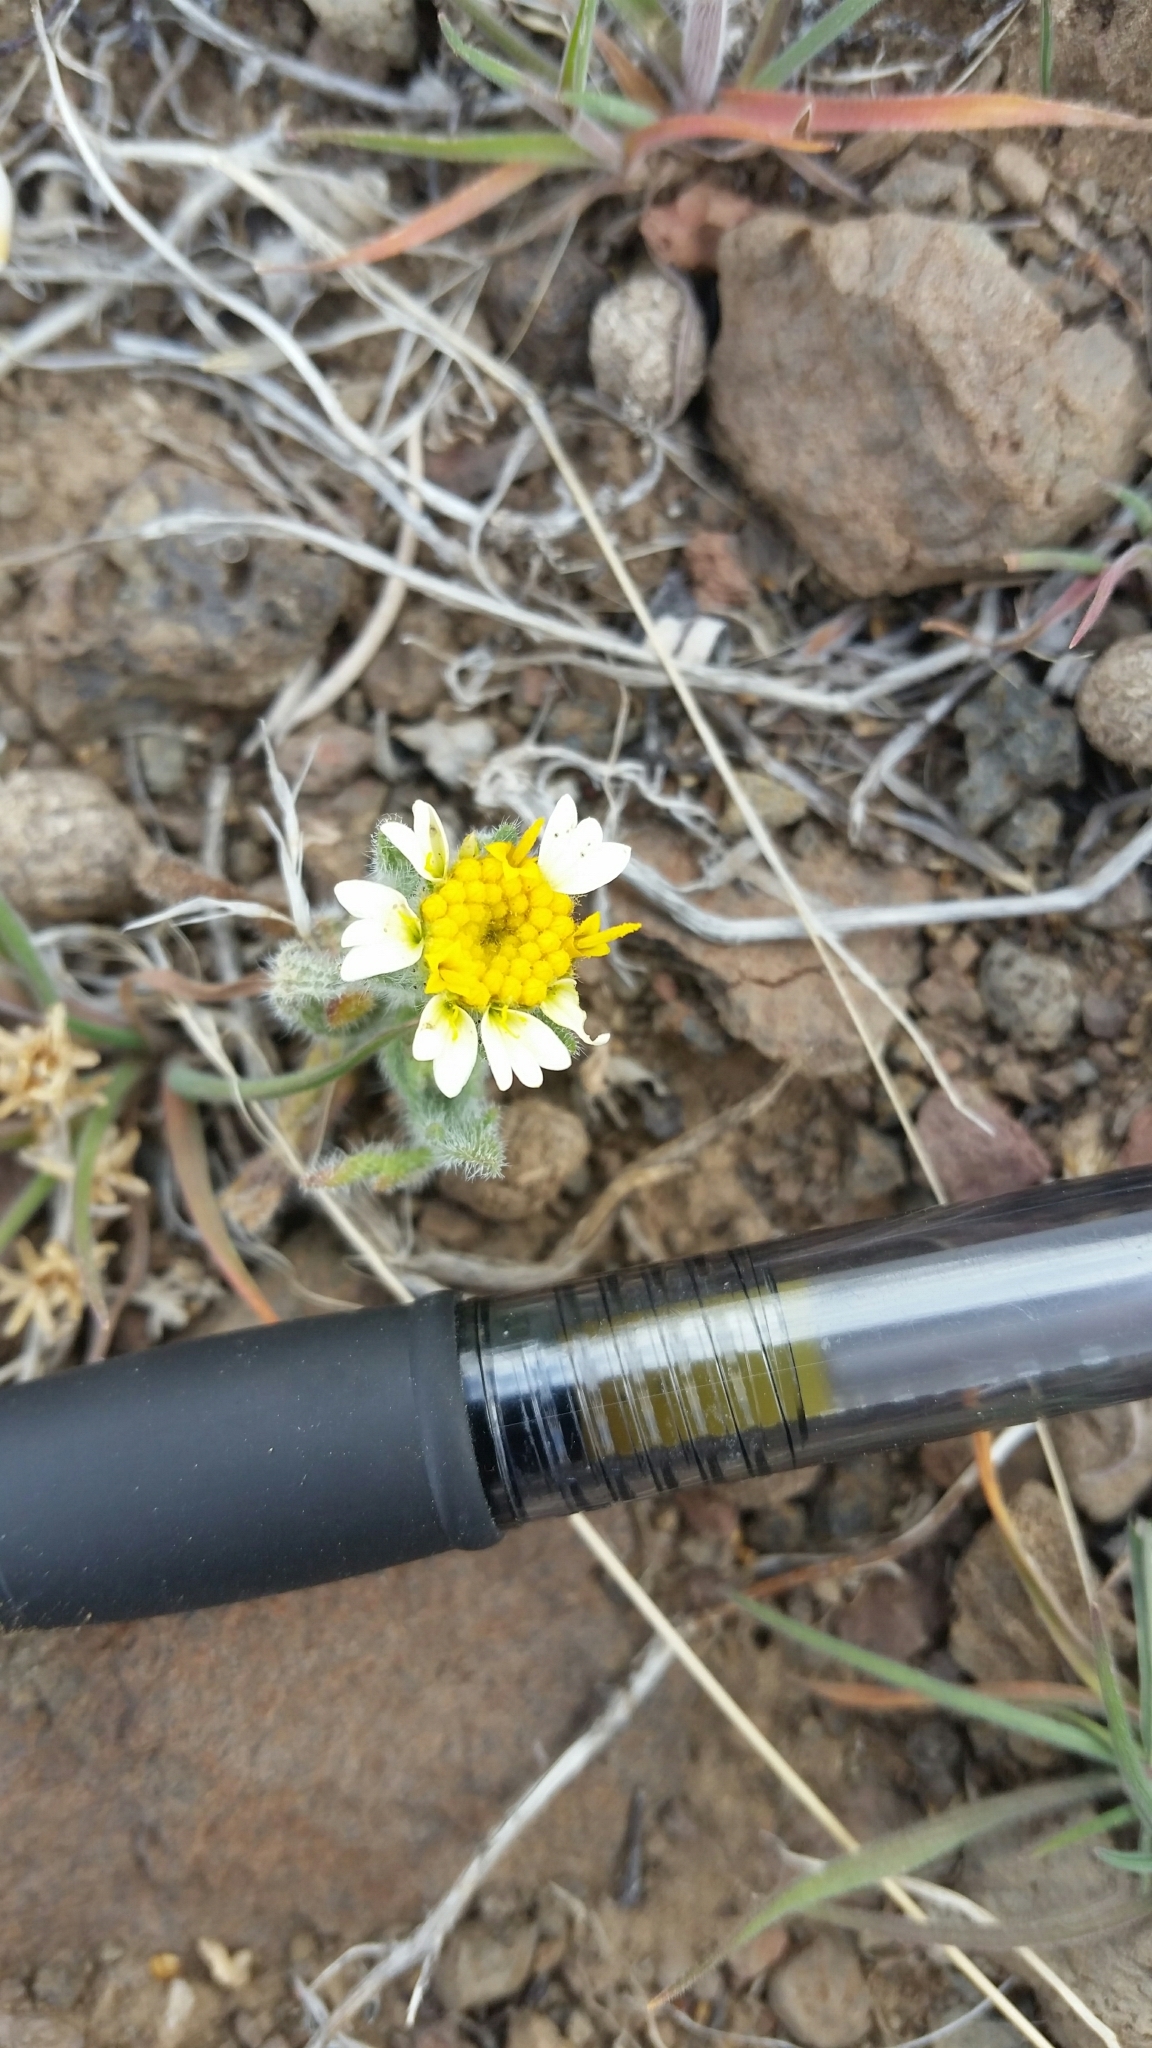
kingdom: Plantae
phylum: Tracheophyta
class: Magnoliopsida
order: Asterales
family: Asteraceae
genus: Layia
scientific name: Layia glandulosa
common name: White layia
